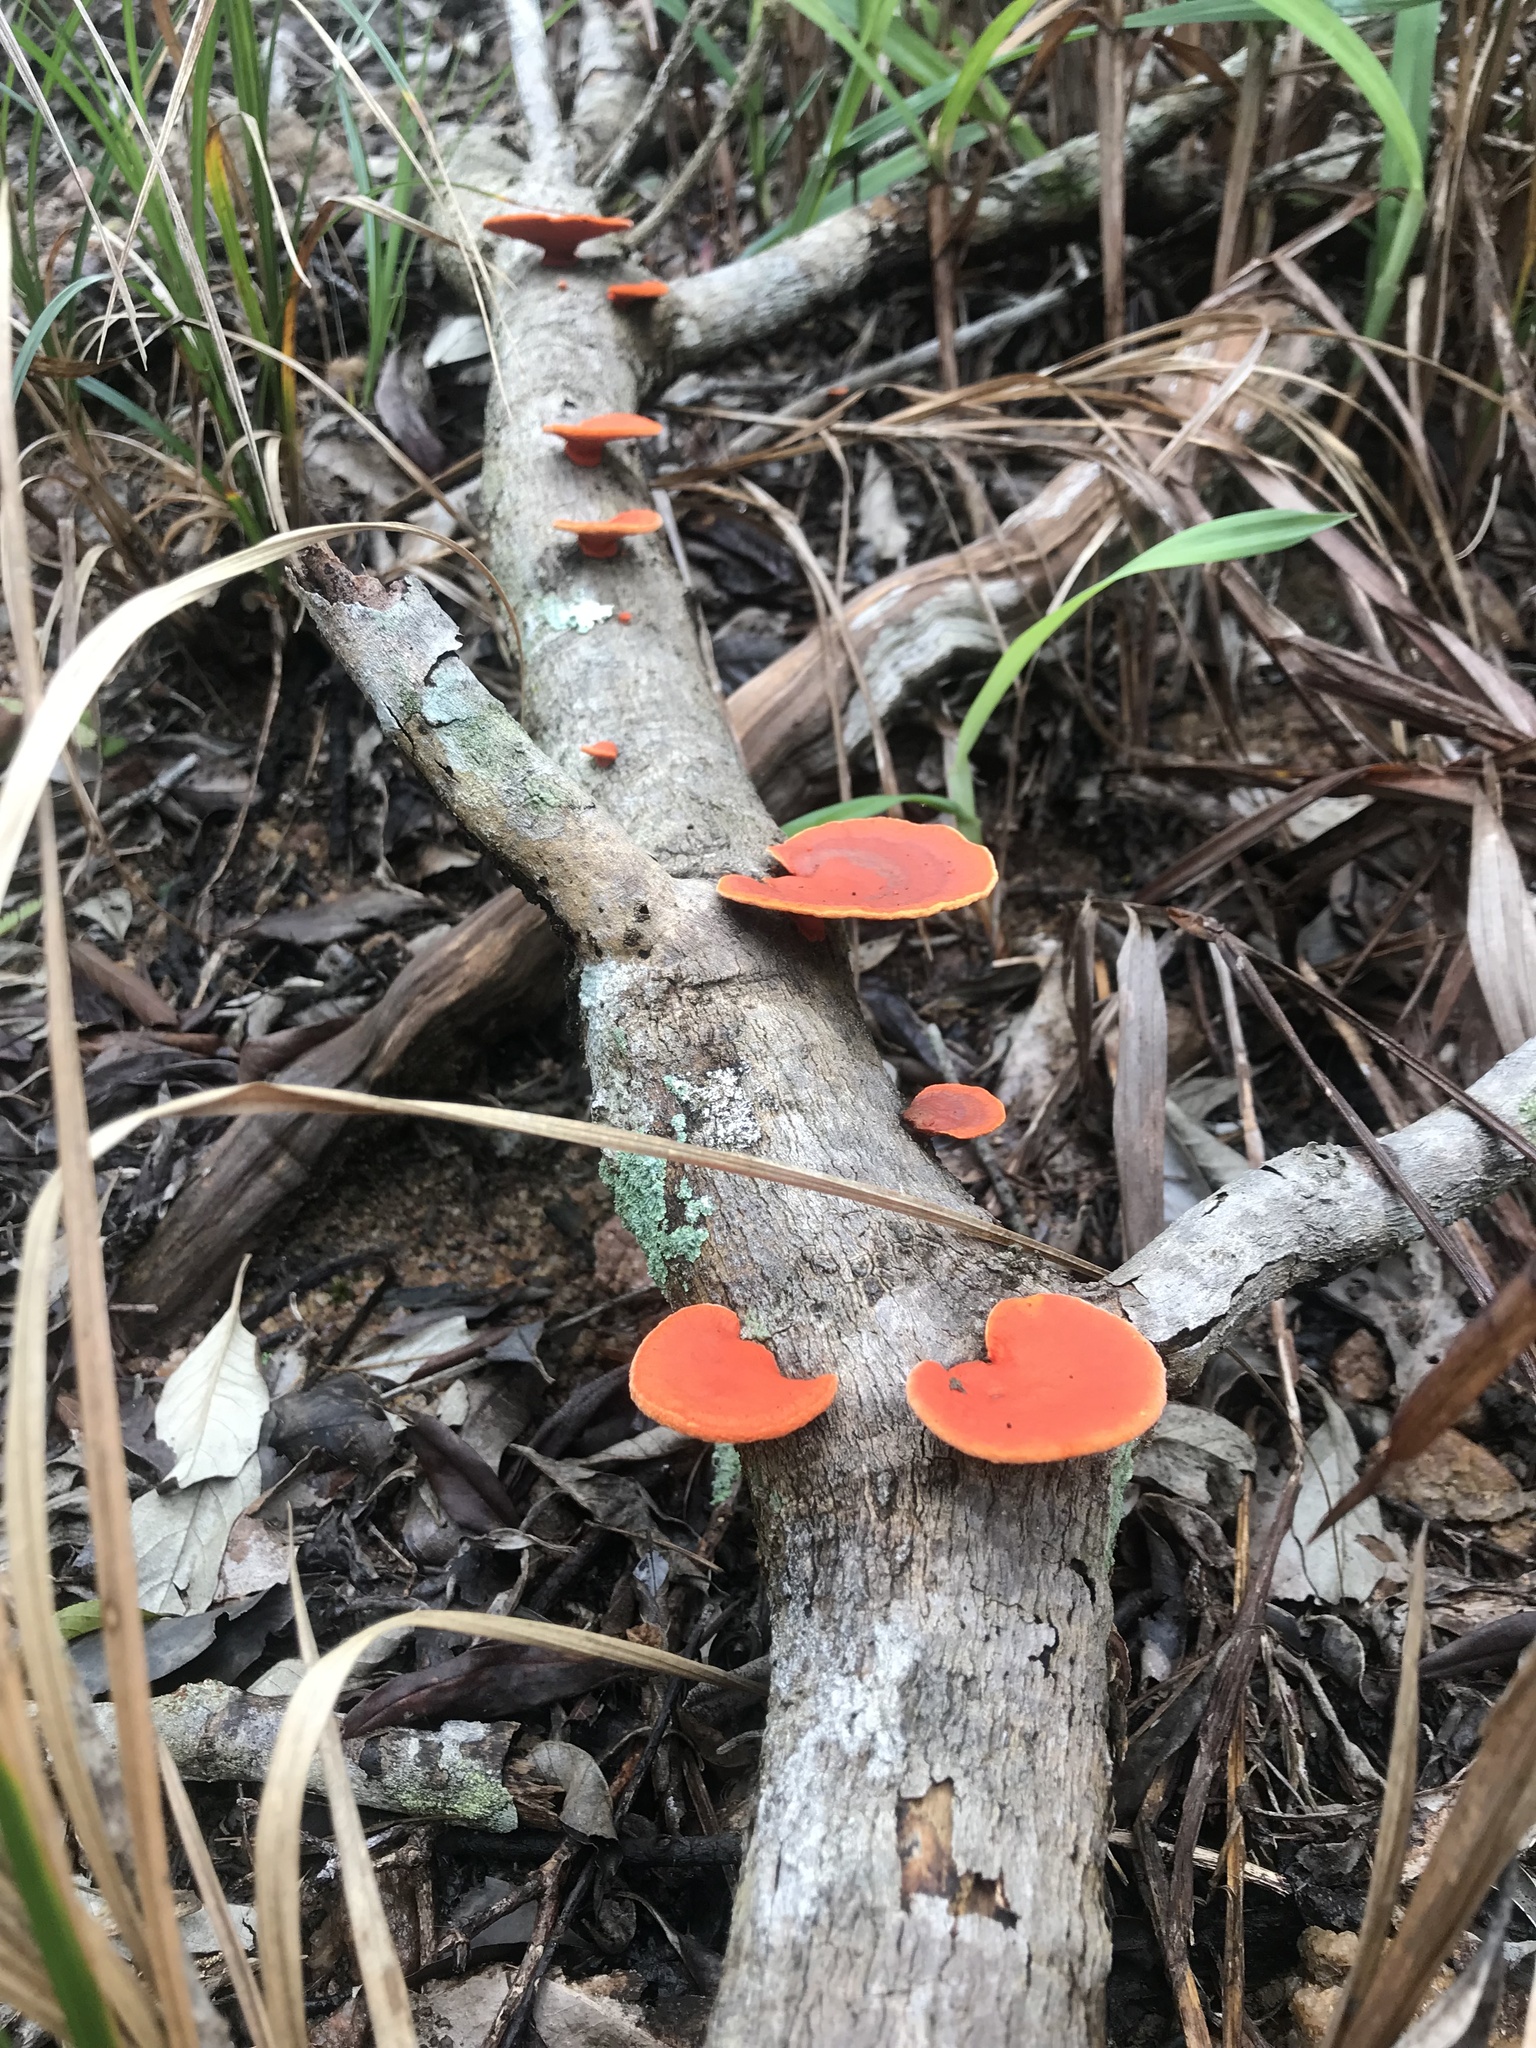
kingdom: Fungi
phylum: Basidiomycota
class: Agaricomycetes
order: Polyporales
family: Polyporaceae
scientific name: Polyporaceae
